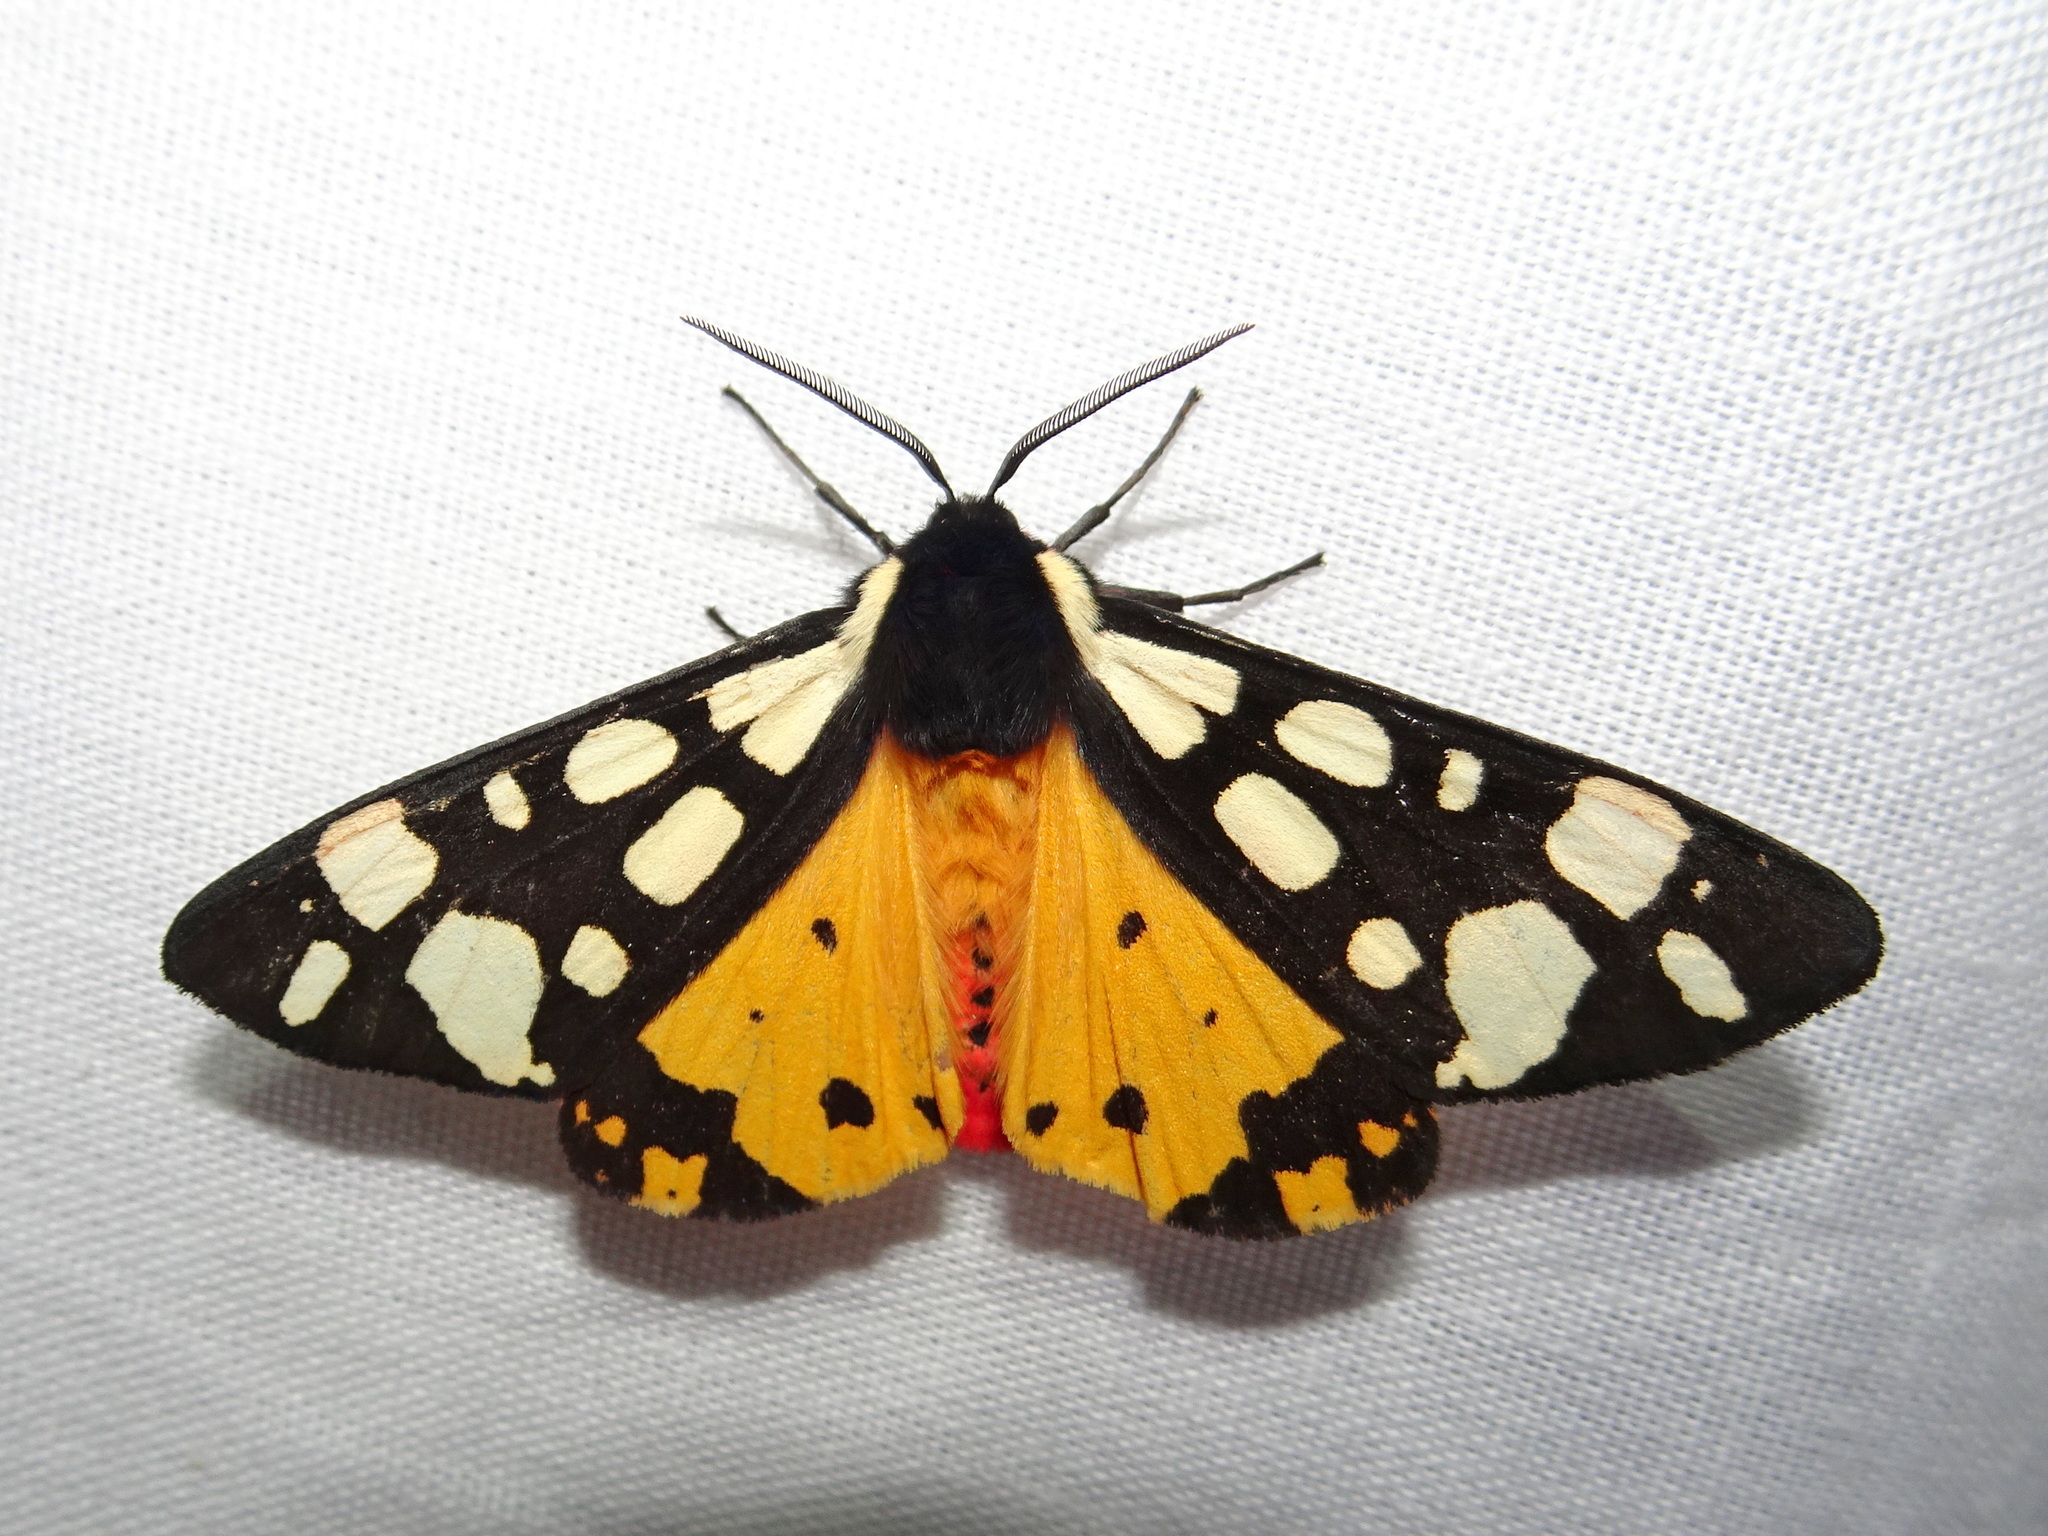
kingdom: Animalia
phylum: Arthropoda
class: Insecta
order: Lepidoptera
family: Erebidae
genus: Epicallia
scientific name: Epicallia villica
